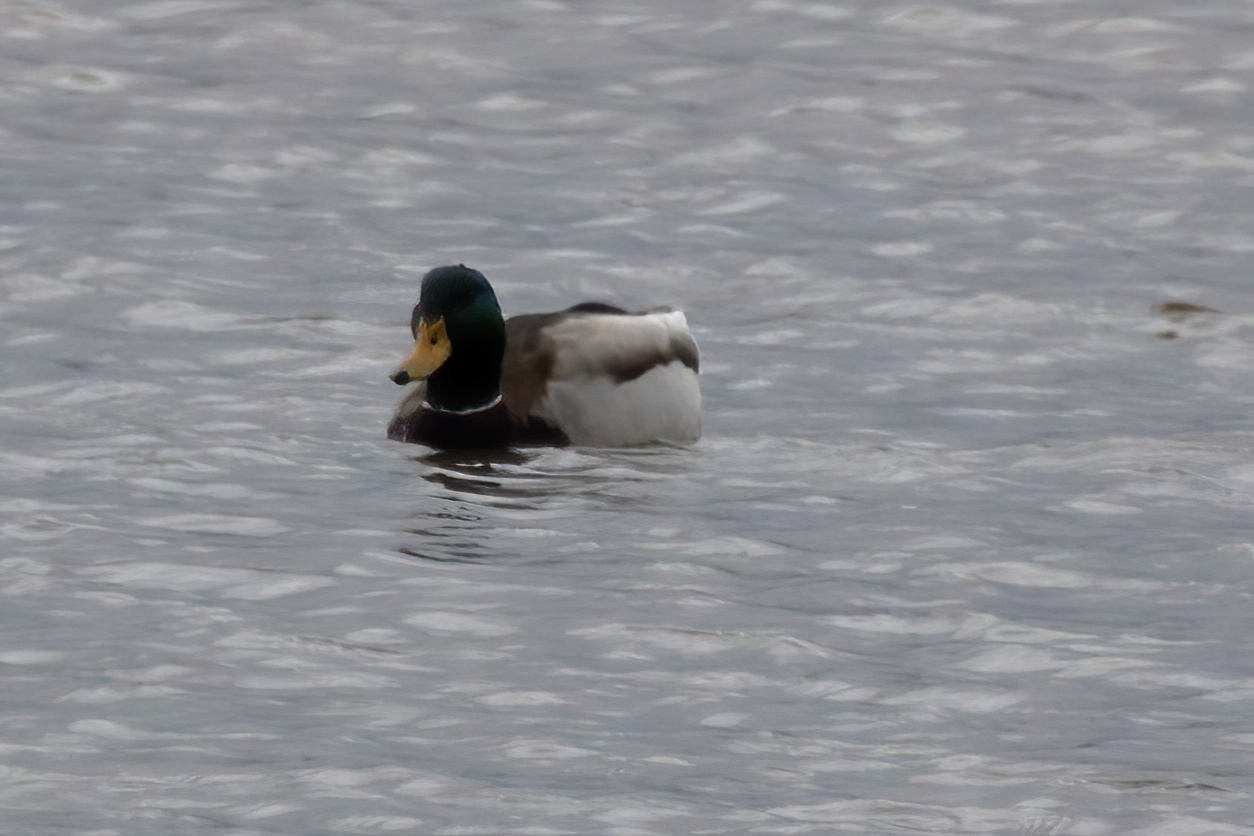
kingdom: Animalia
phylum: Chordata
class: Aves
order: Anseriformes
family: Anatidae
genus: Anas
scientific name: Anas platyrhynchos
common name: Mallard
